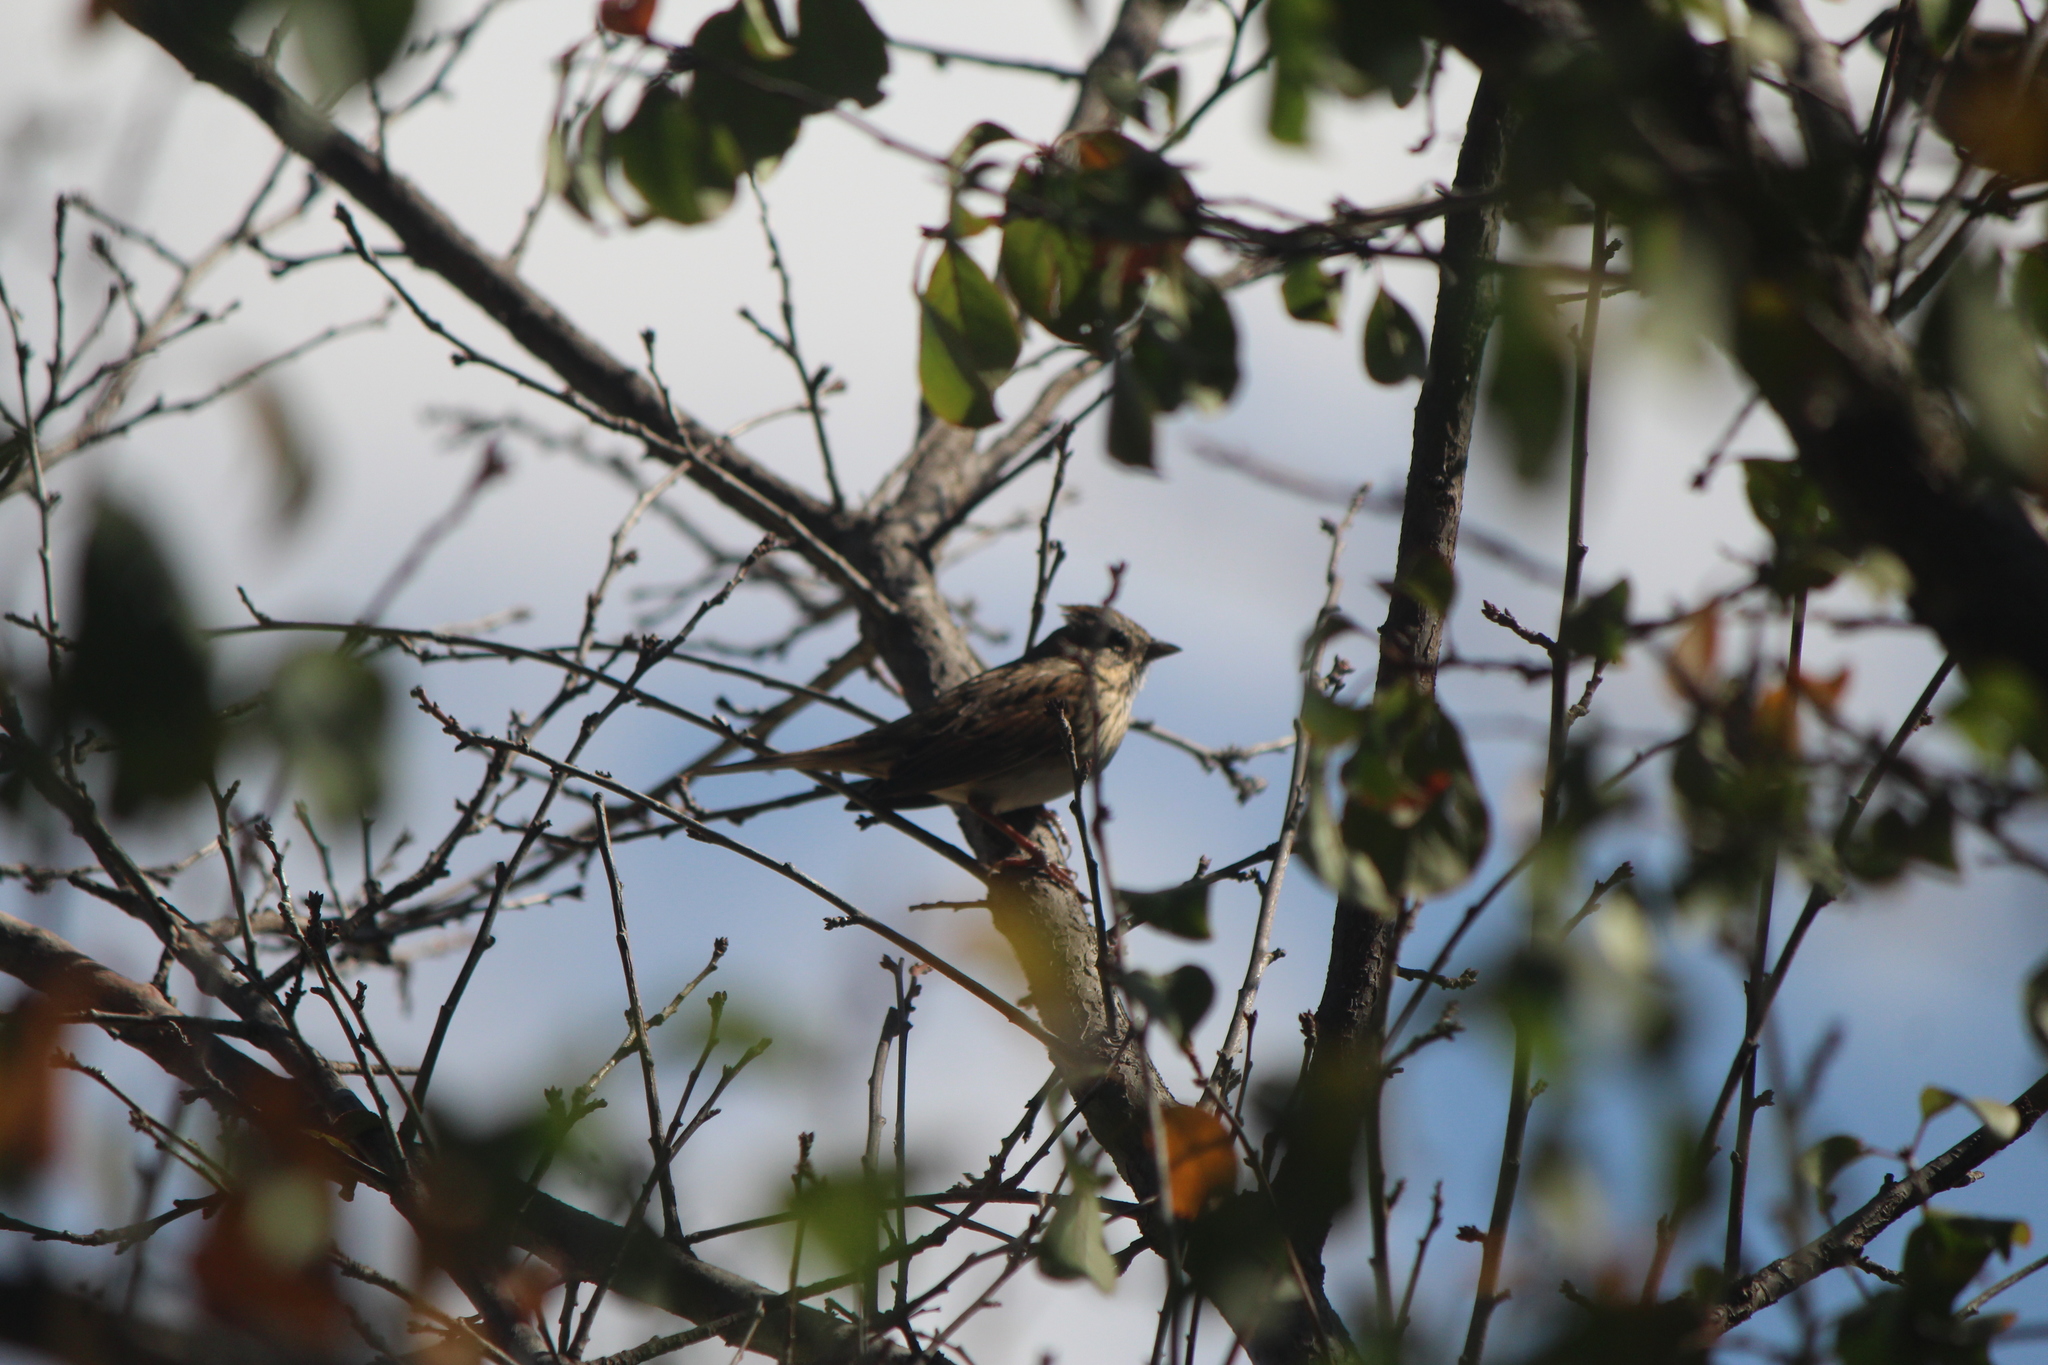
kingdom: Animalia
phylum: Chordata
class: Aves
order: Passeriformes
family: Passerellidae
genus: Melospiza
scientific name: Melospiza lincolnii
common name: Lincoln's sparrow
